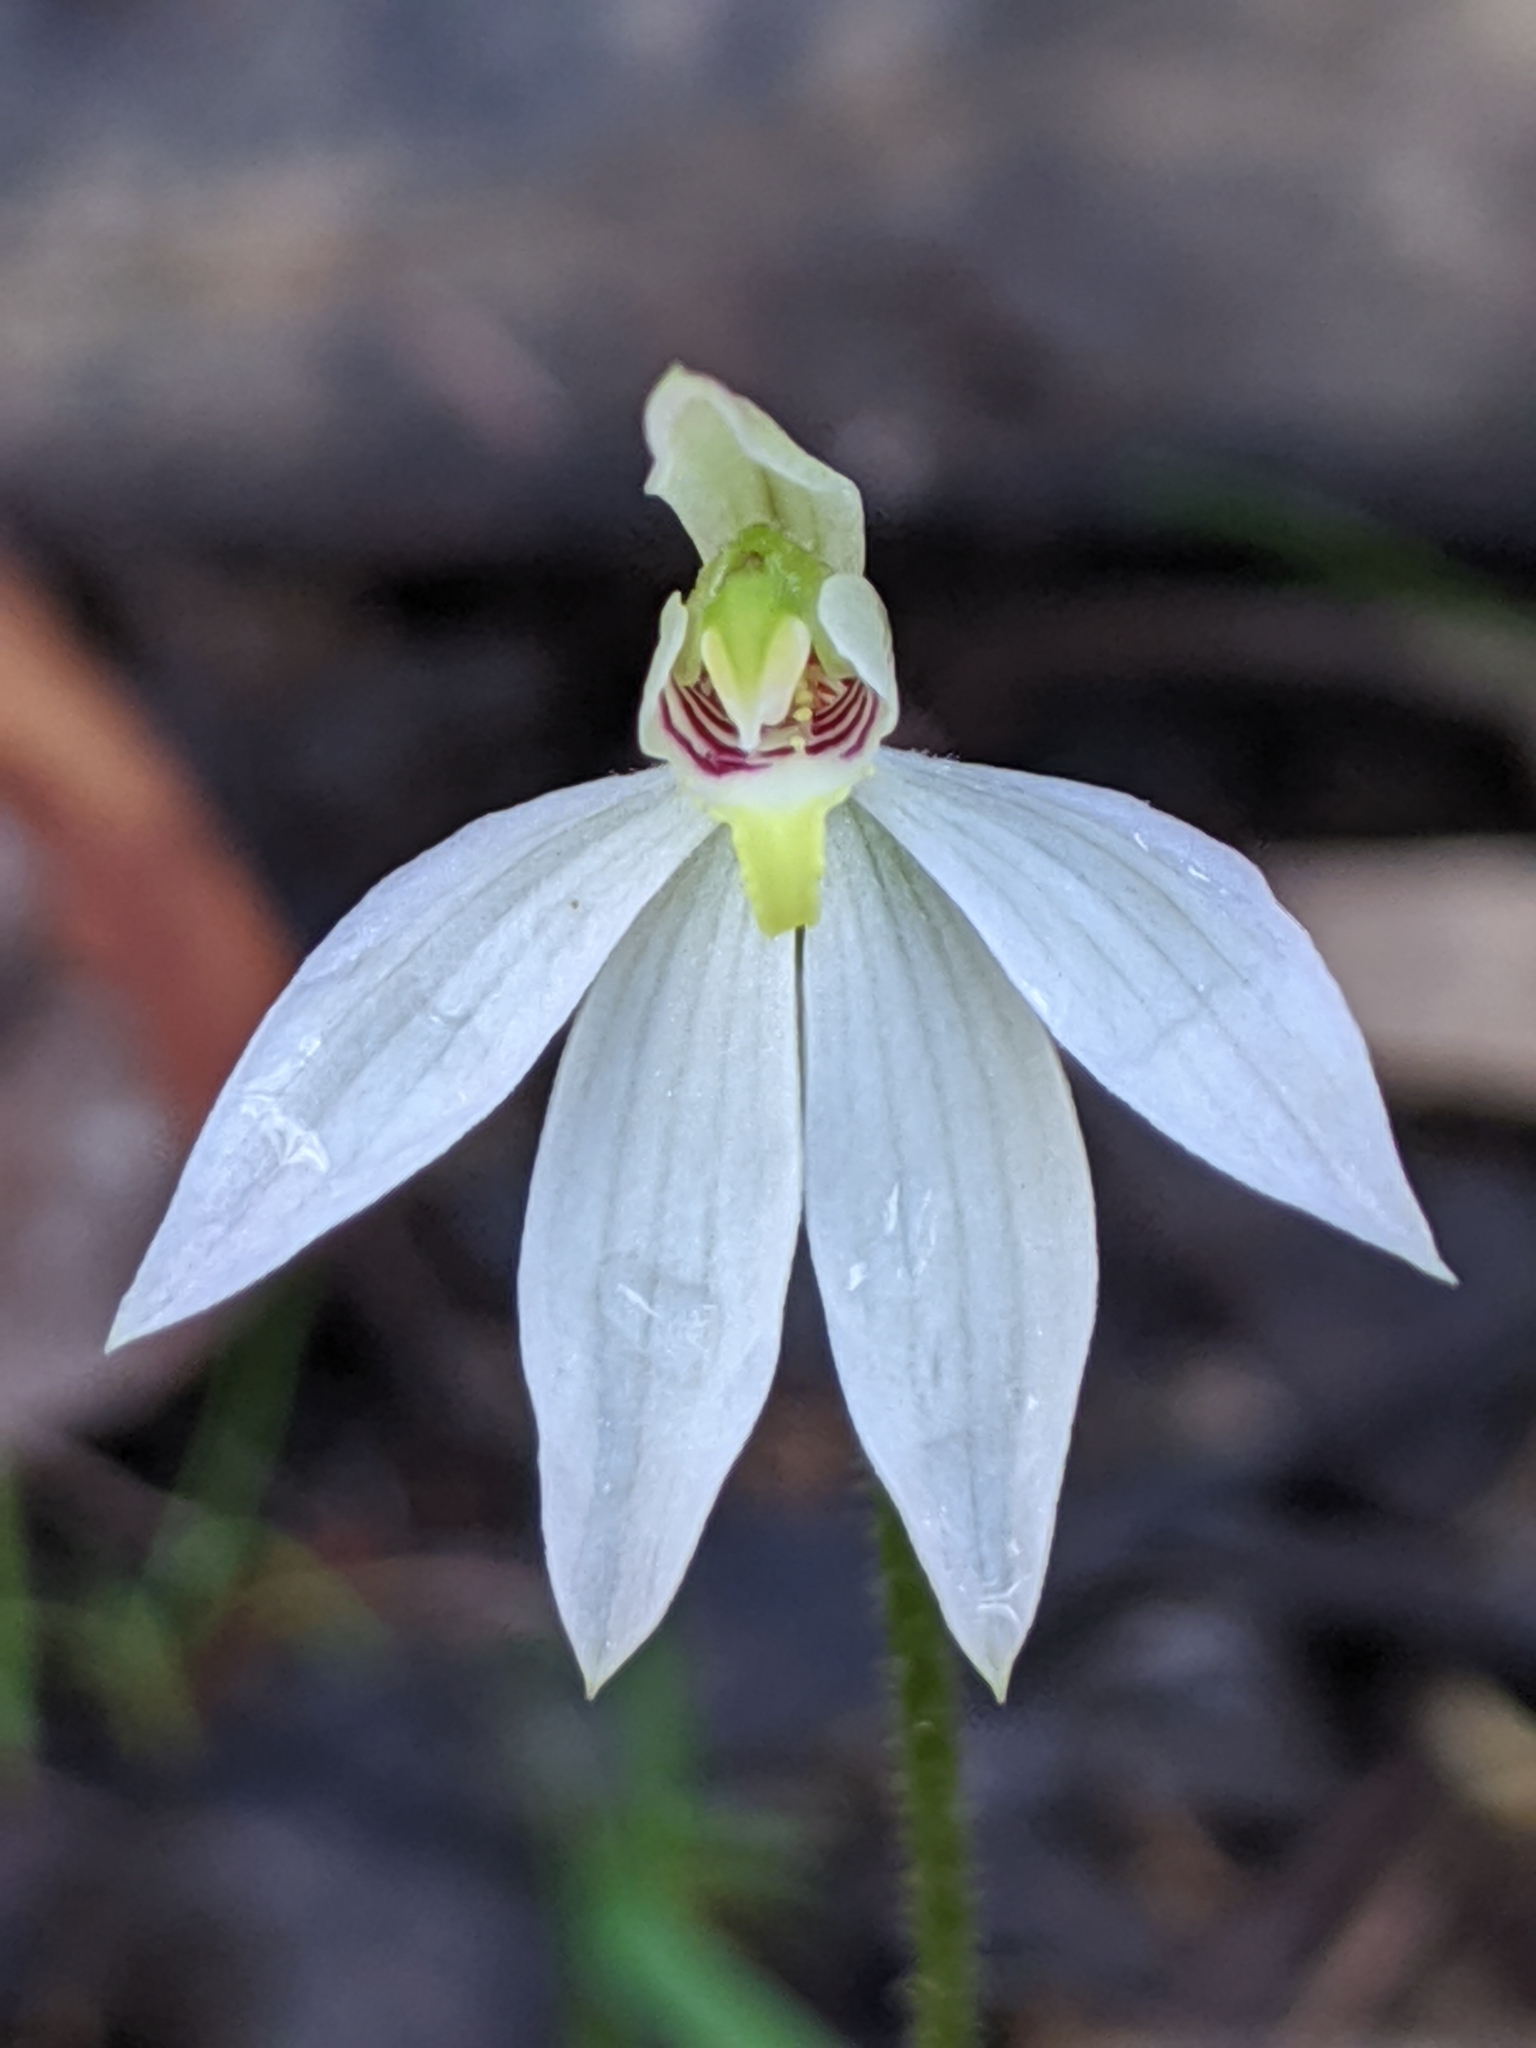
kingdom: Plantae
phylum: Tracheophyta
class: Liliopsida
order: Asparagales
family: Orchidaceae
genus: Caladenia
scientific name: Caladenia carnea
